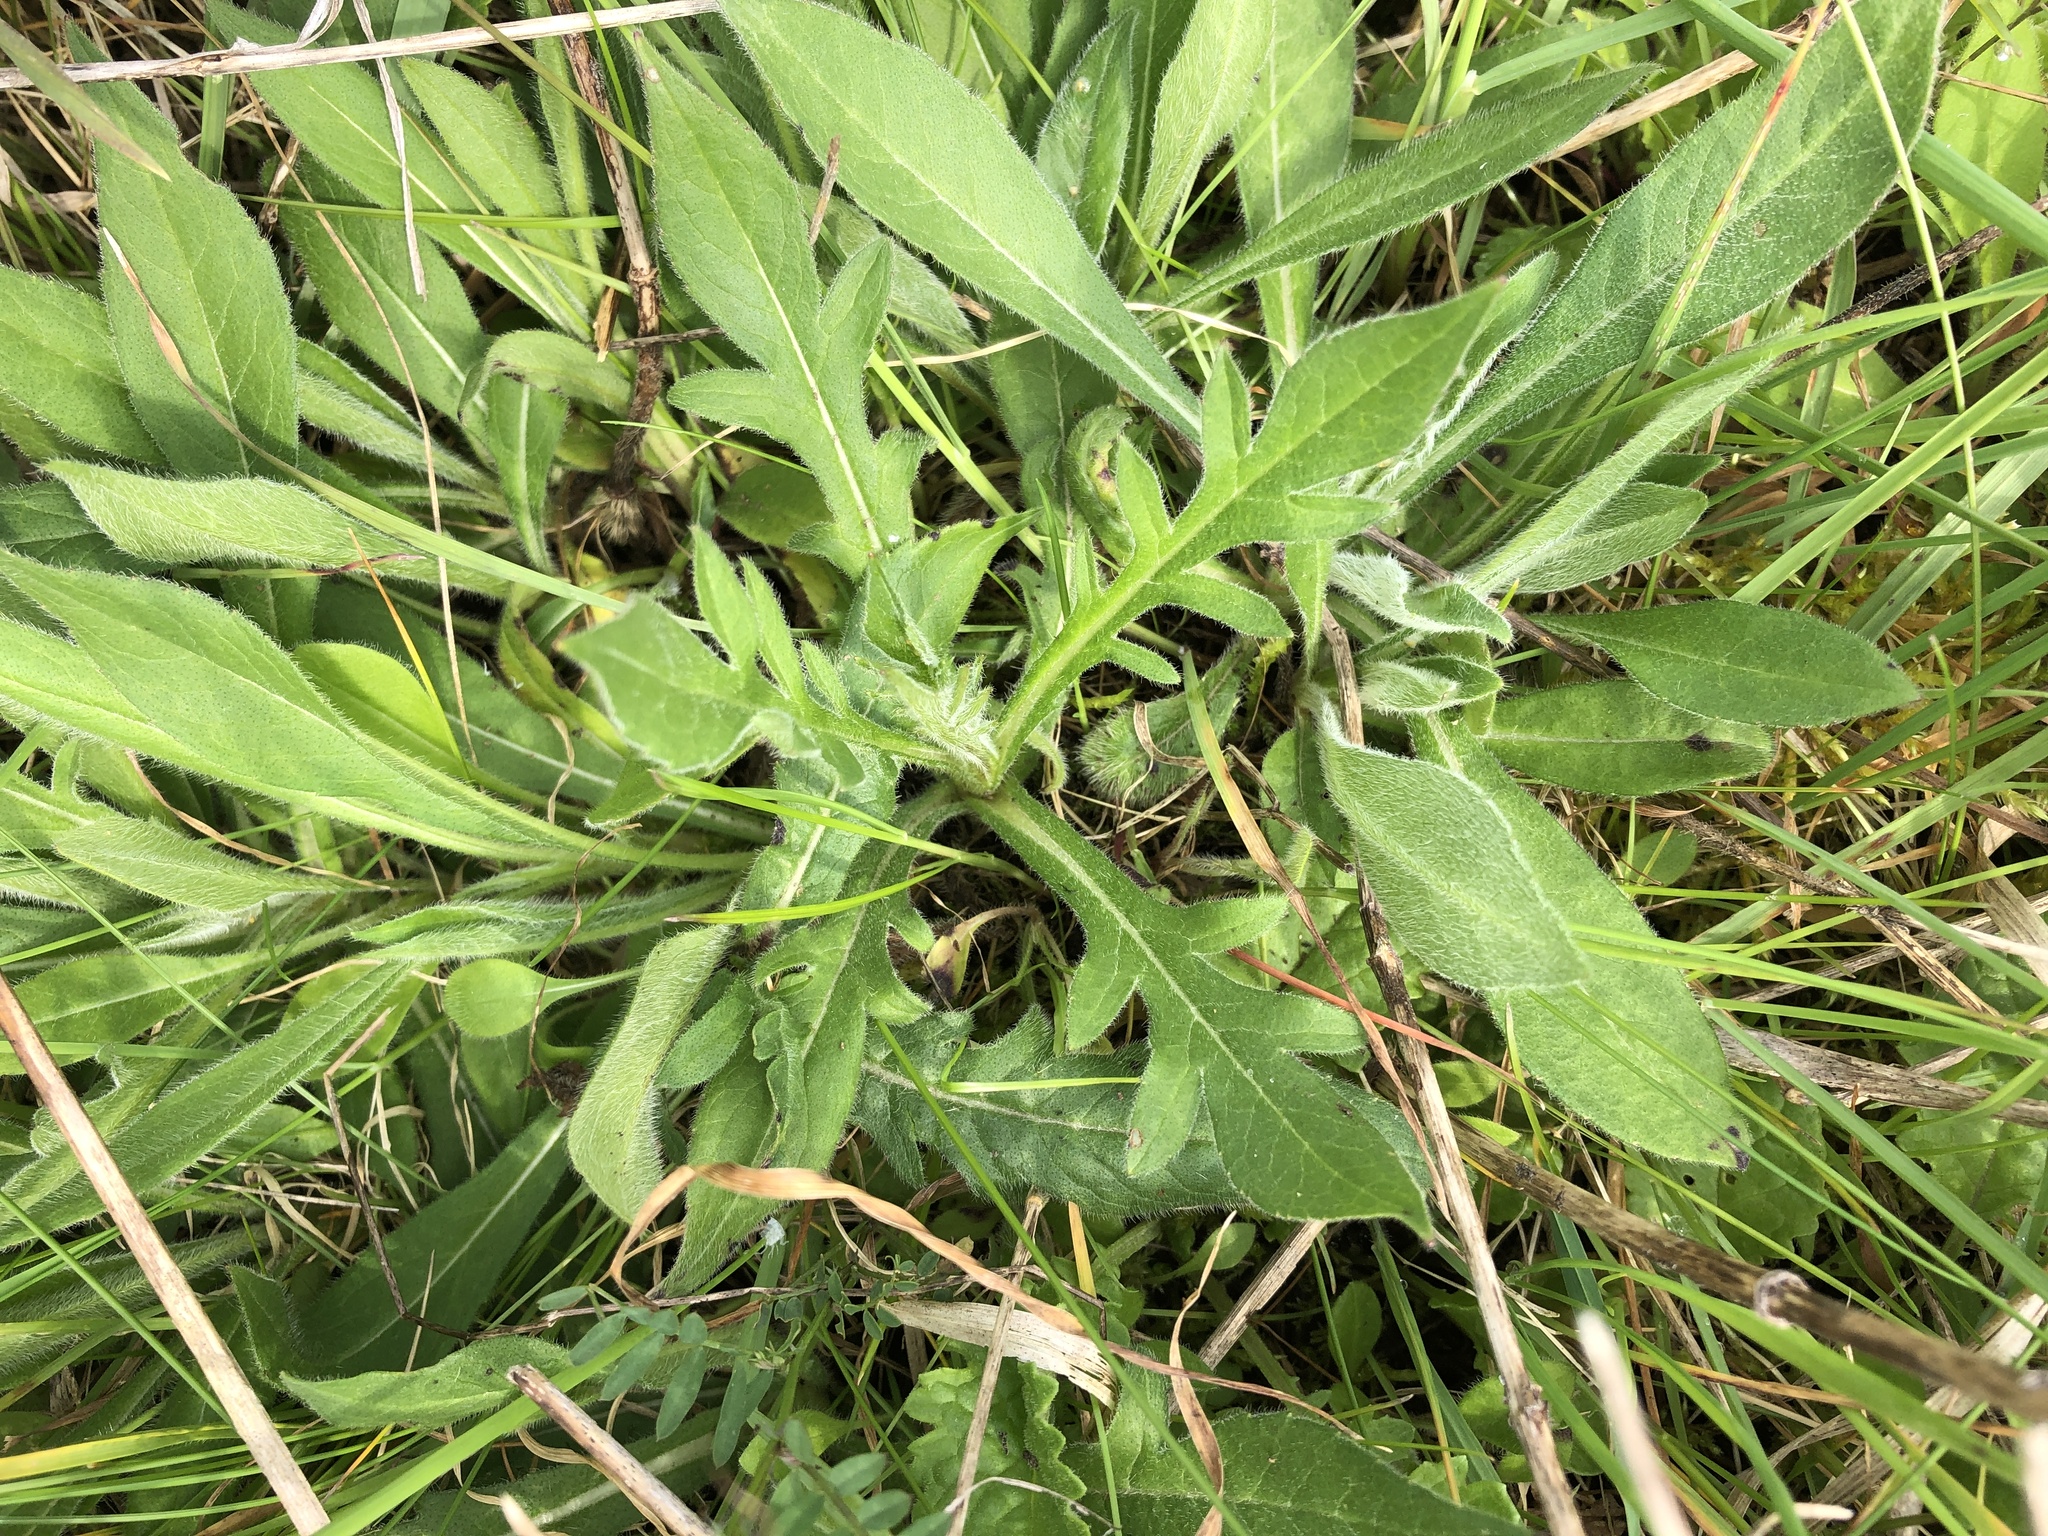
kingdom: Plantae
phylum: Tracheophyta
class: Magnoliopsida
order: Dipsacales
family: Caprifoliaceae
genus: Knautia
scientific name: Knautia arvensis
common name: Field scabiosa
